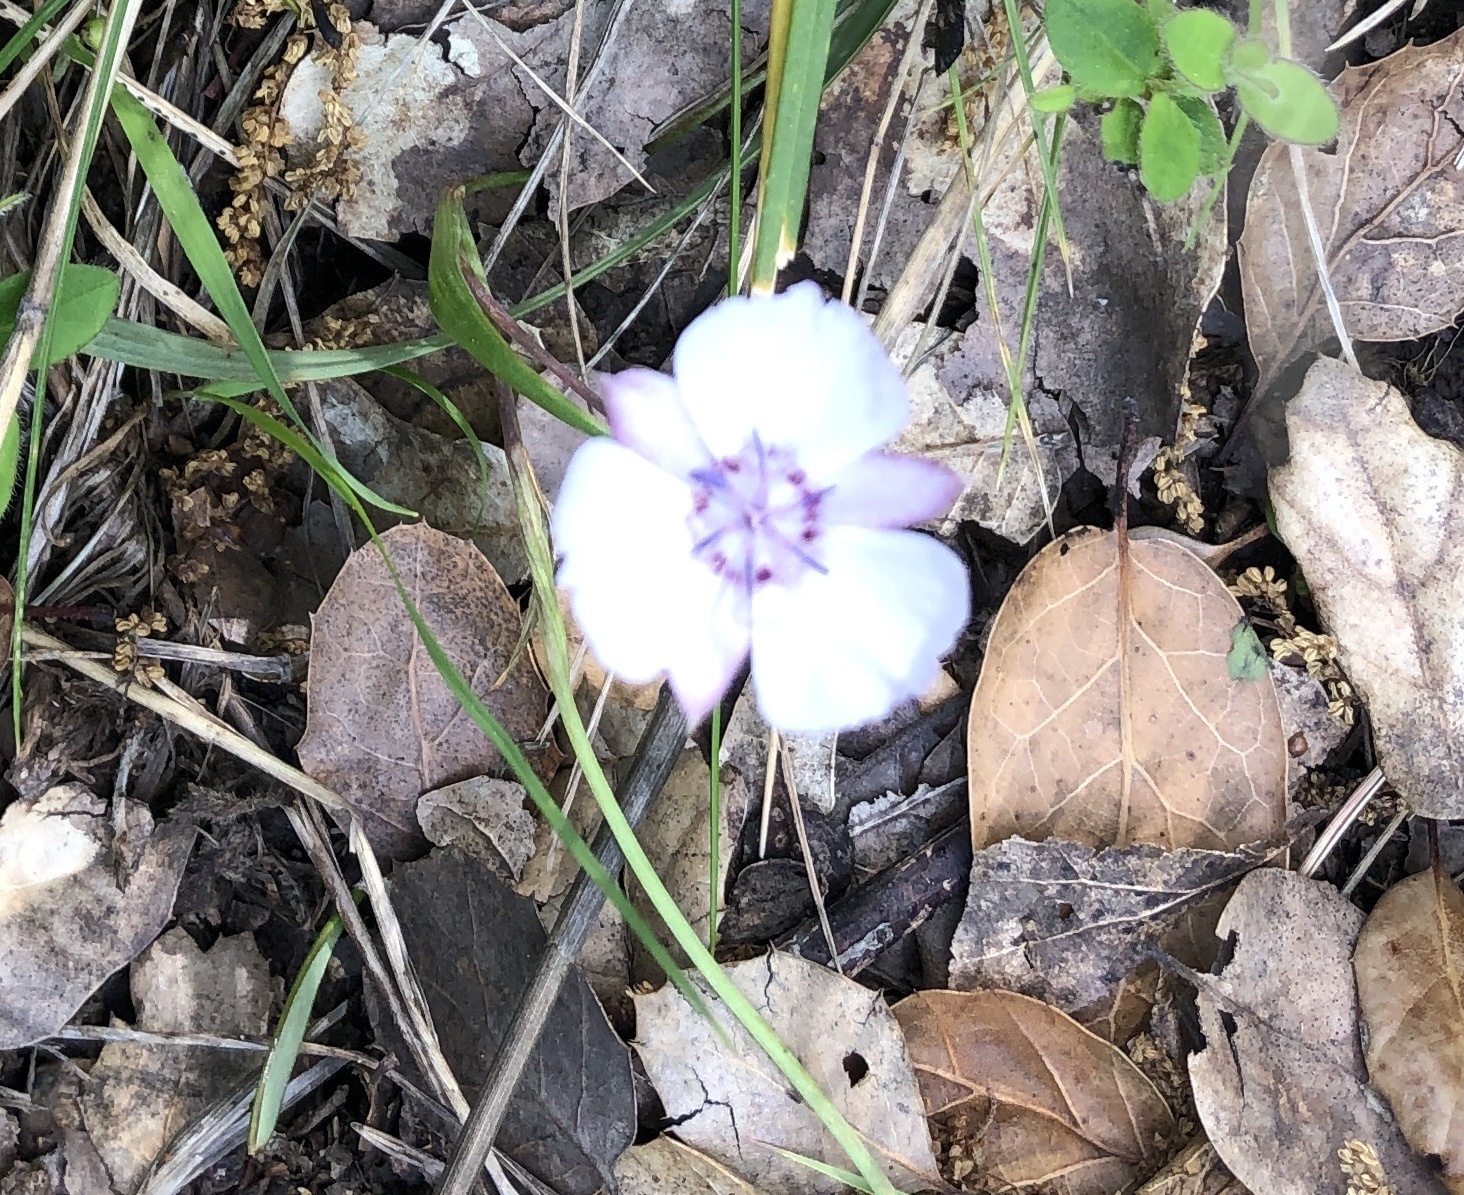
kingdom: Plantae
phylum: Tracheophyta
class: Liliopsida
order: Liliales
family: Liliaceae
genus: Calochortus
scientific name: Calochortus umbellatus
